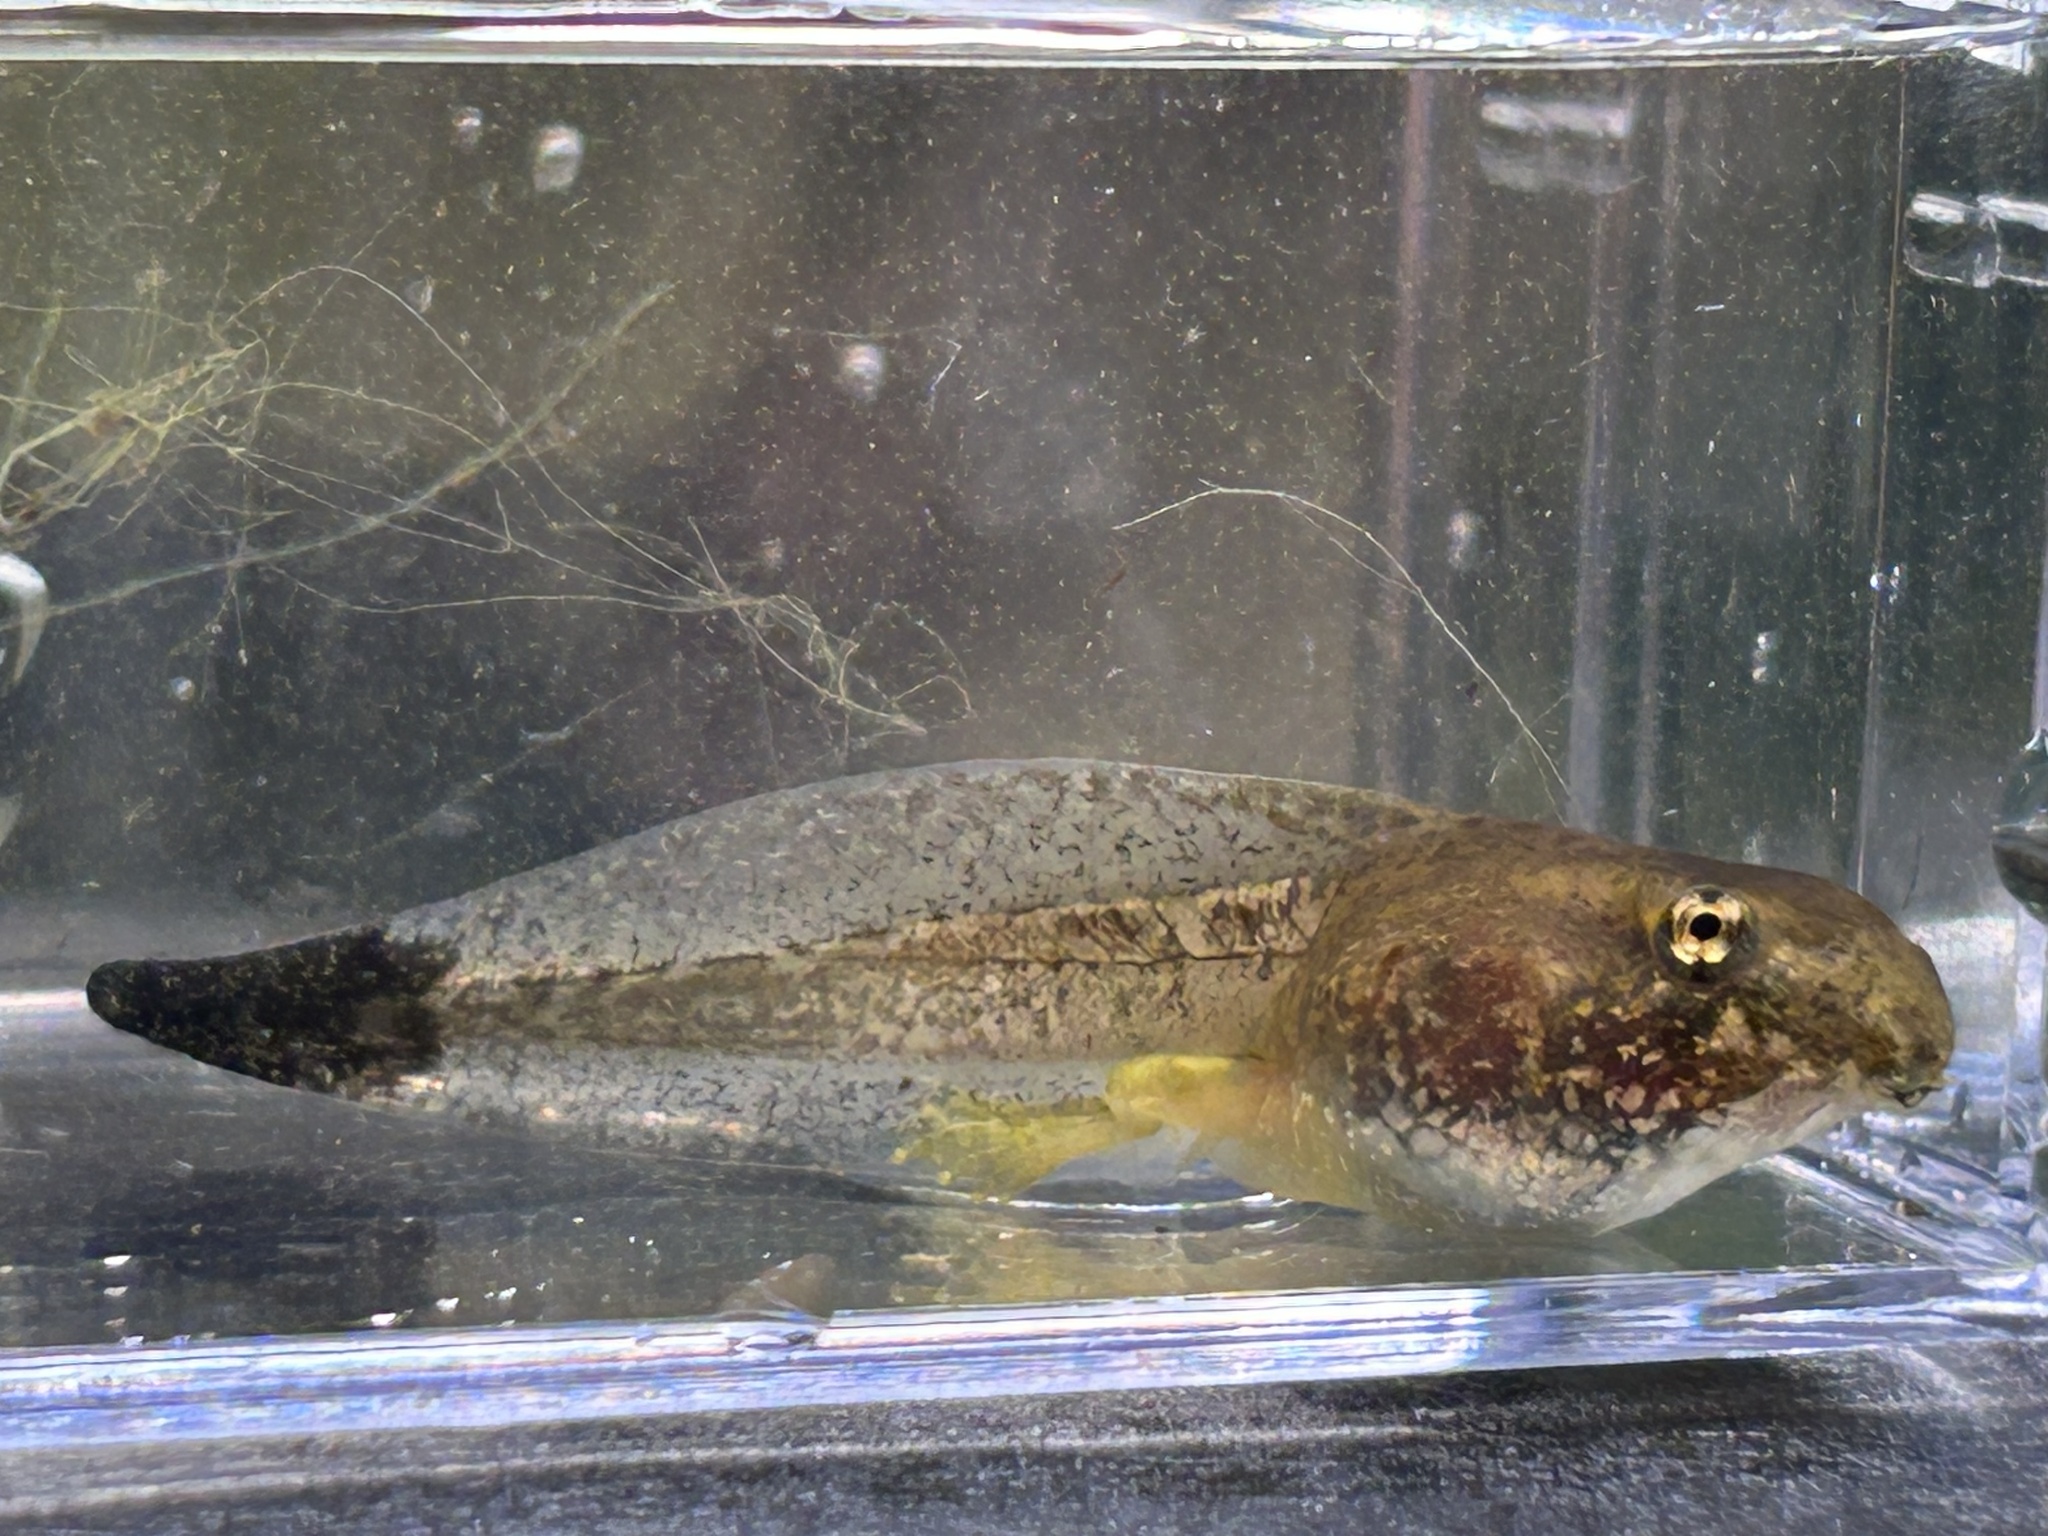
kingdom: Animalia
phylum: Chordata
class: Amphibia
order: Anura
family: Hylidae
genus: Acris
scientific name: Acris blanchardi
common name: Blanchard's cricket frog
